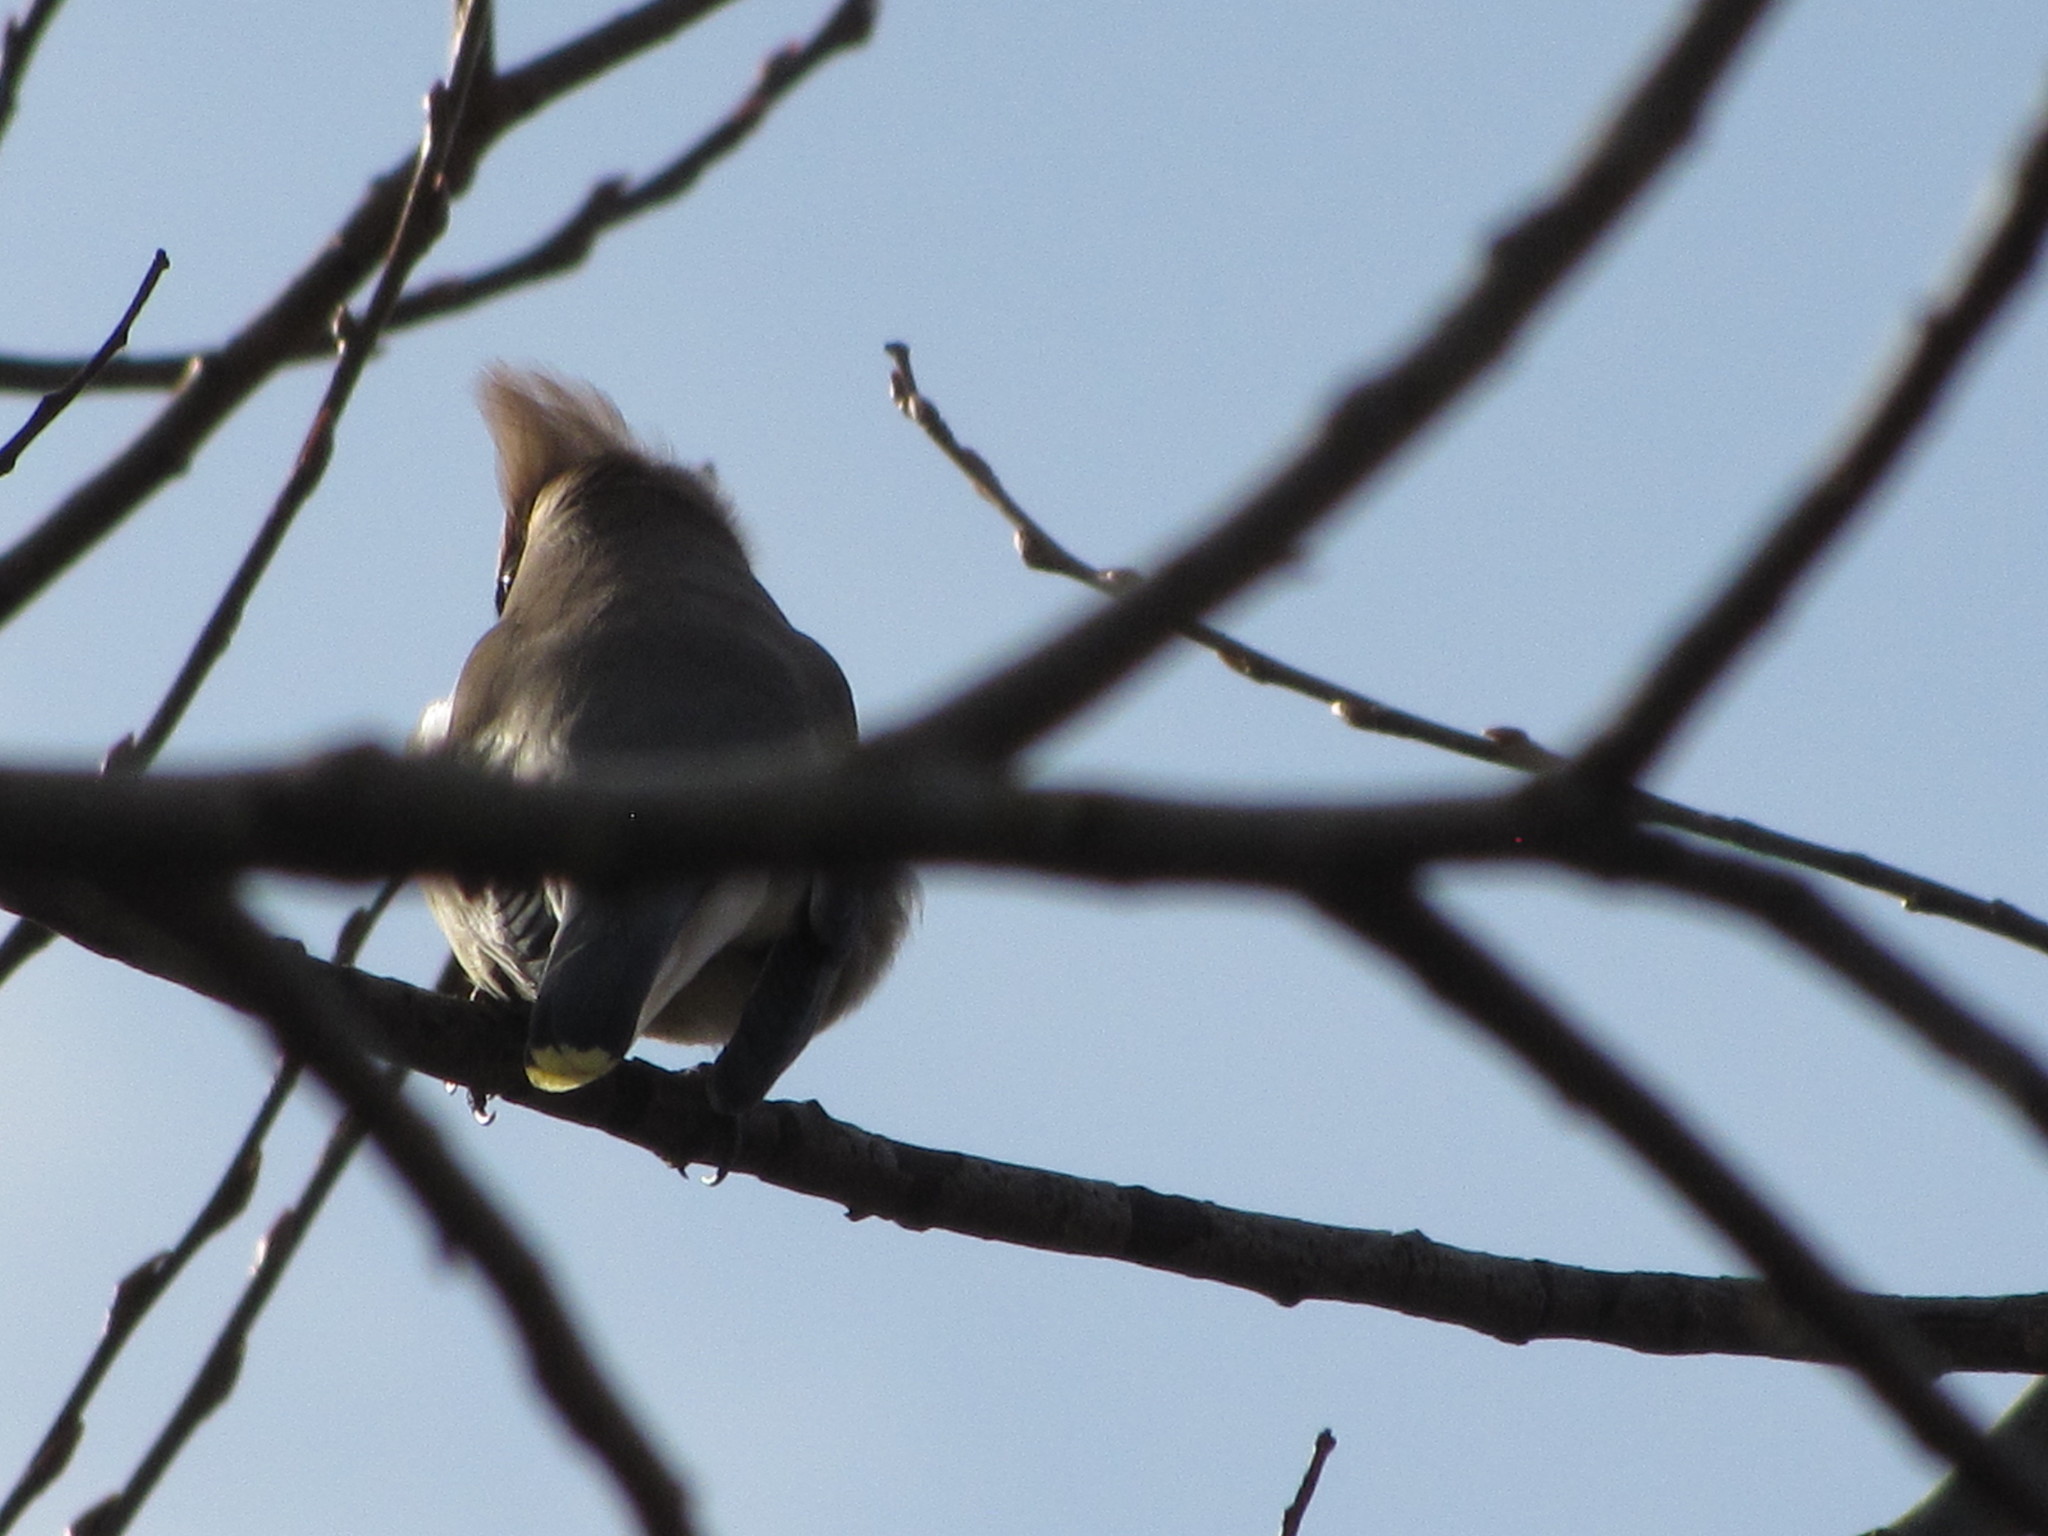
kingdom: Animalia
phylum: Chordata
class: Aves
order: Passeriformes
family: Bombycillidae
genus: Bombycilla
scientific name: Bombycilla cedrorum
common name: Cedar waxwing
